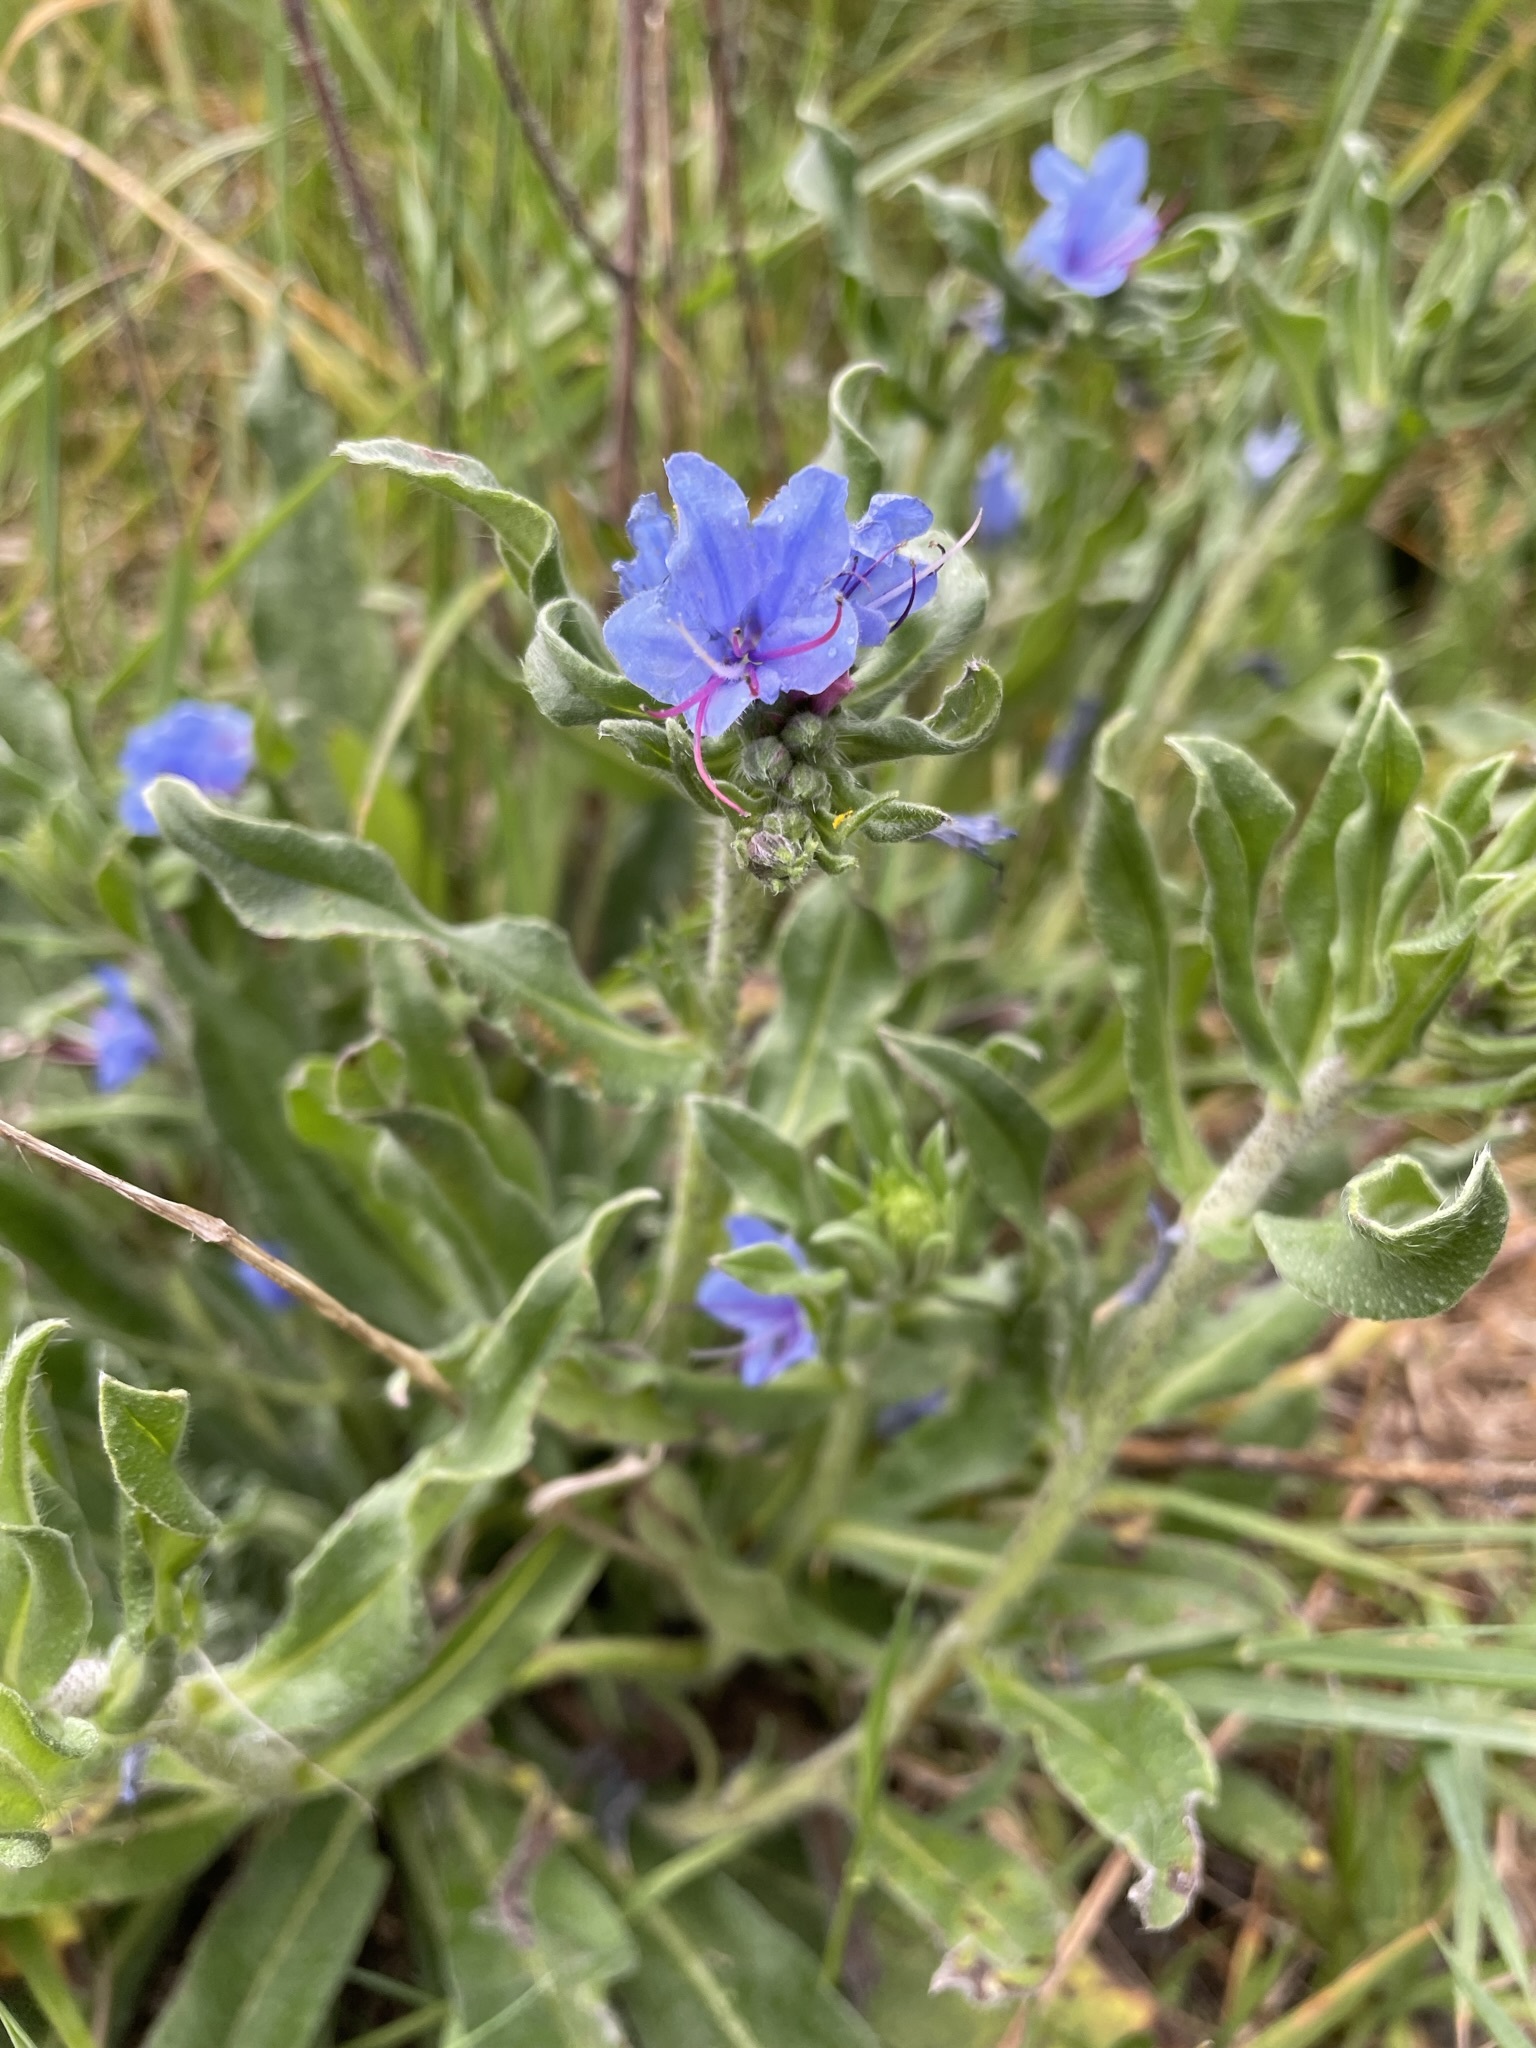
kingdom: Plantae
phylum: Tracheophyta
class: Magnoliopsida
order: Boraginales
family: Boraginaceae
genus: Echium
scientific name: Echium vulgare
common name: Common viper's bugloss
